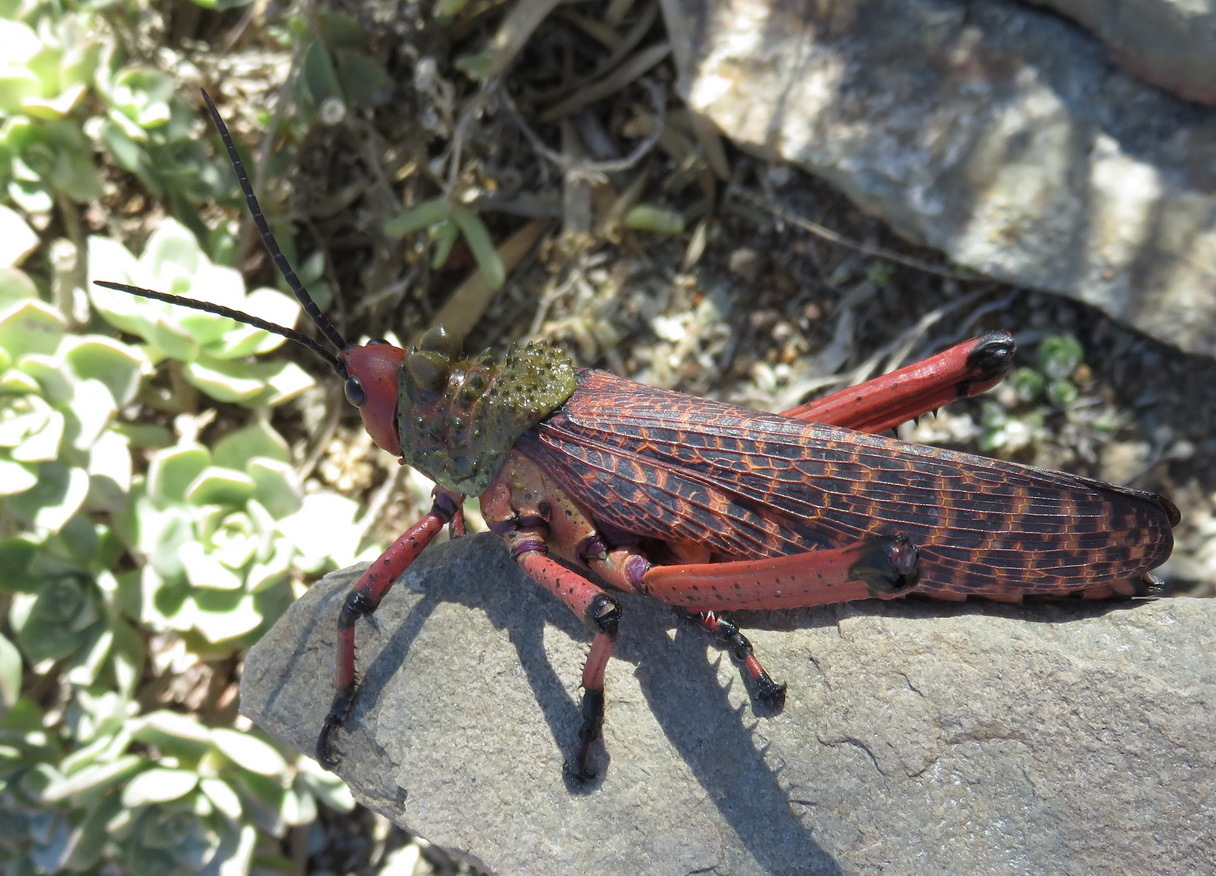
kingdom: Animalia
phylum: Arthropoda
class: Insecta
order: Orthoptera
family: Pyrgomorphidae
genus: Phymateus
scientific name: Phymateus leprosus
